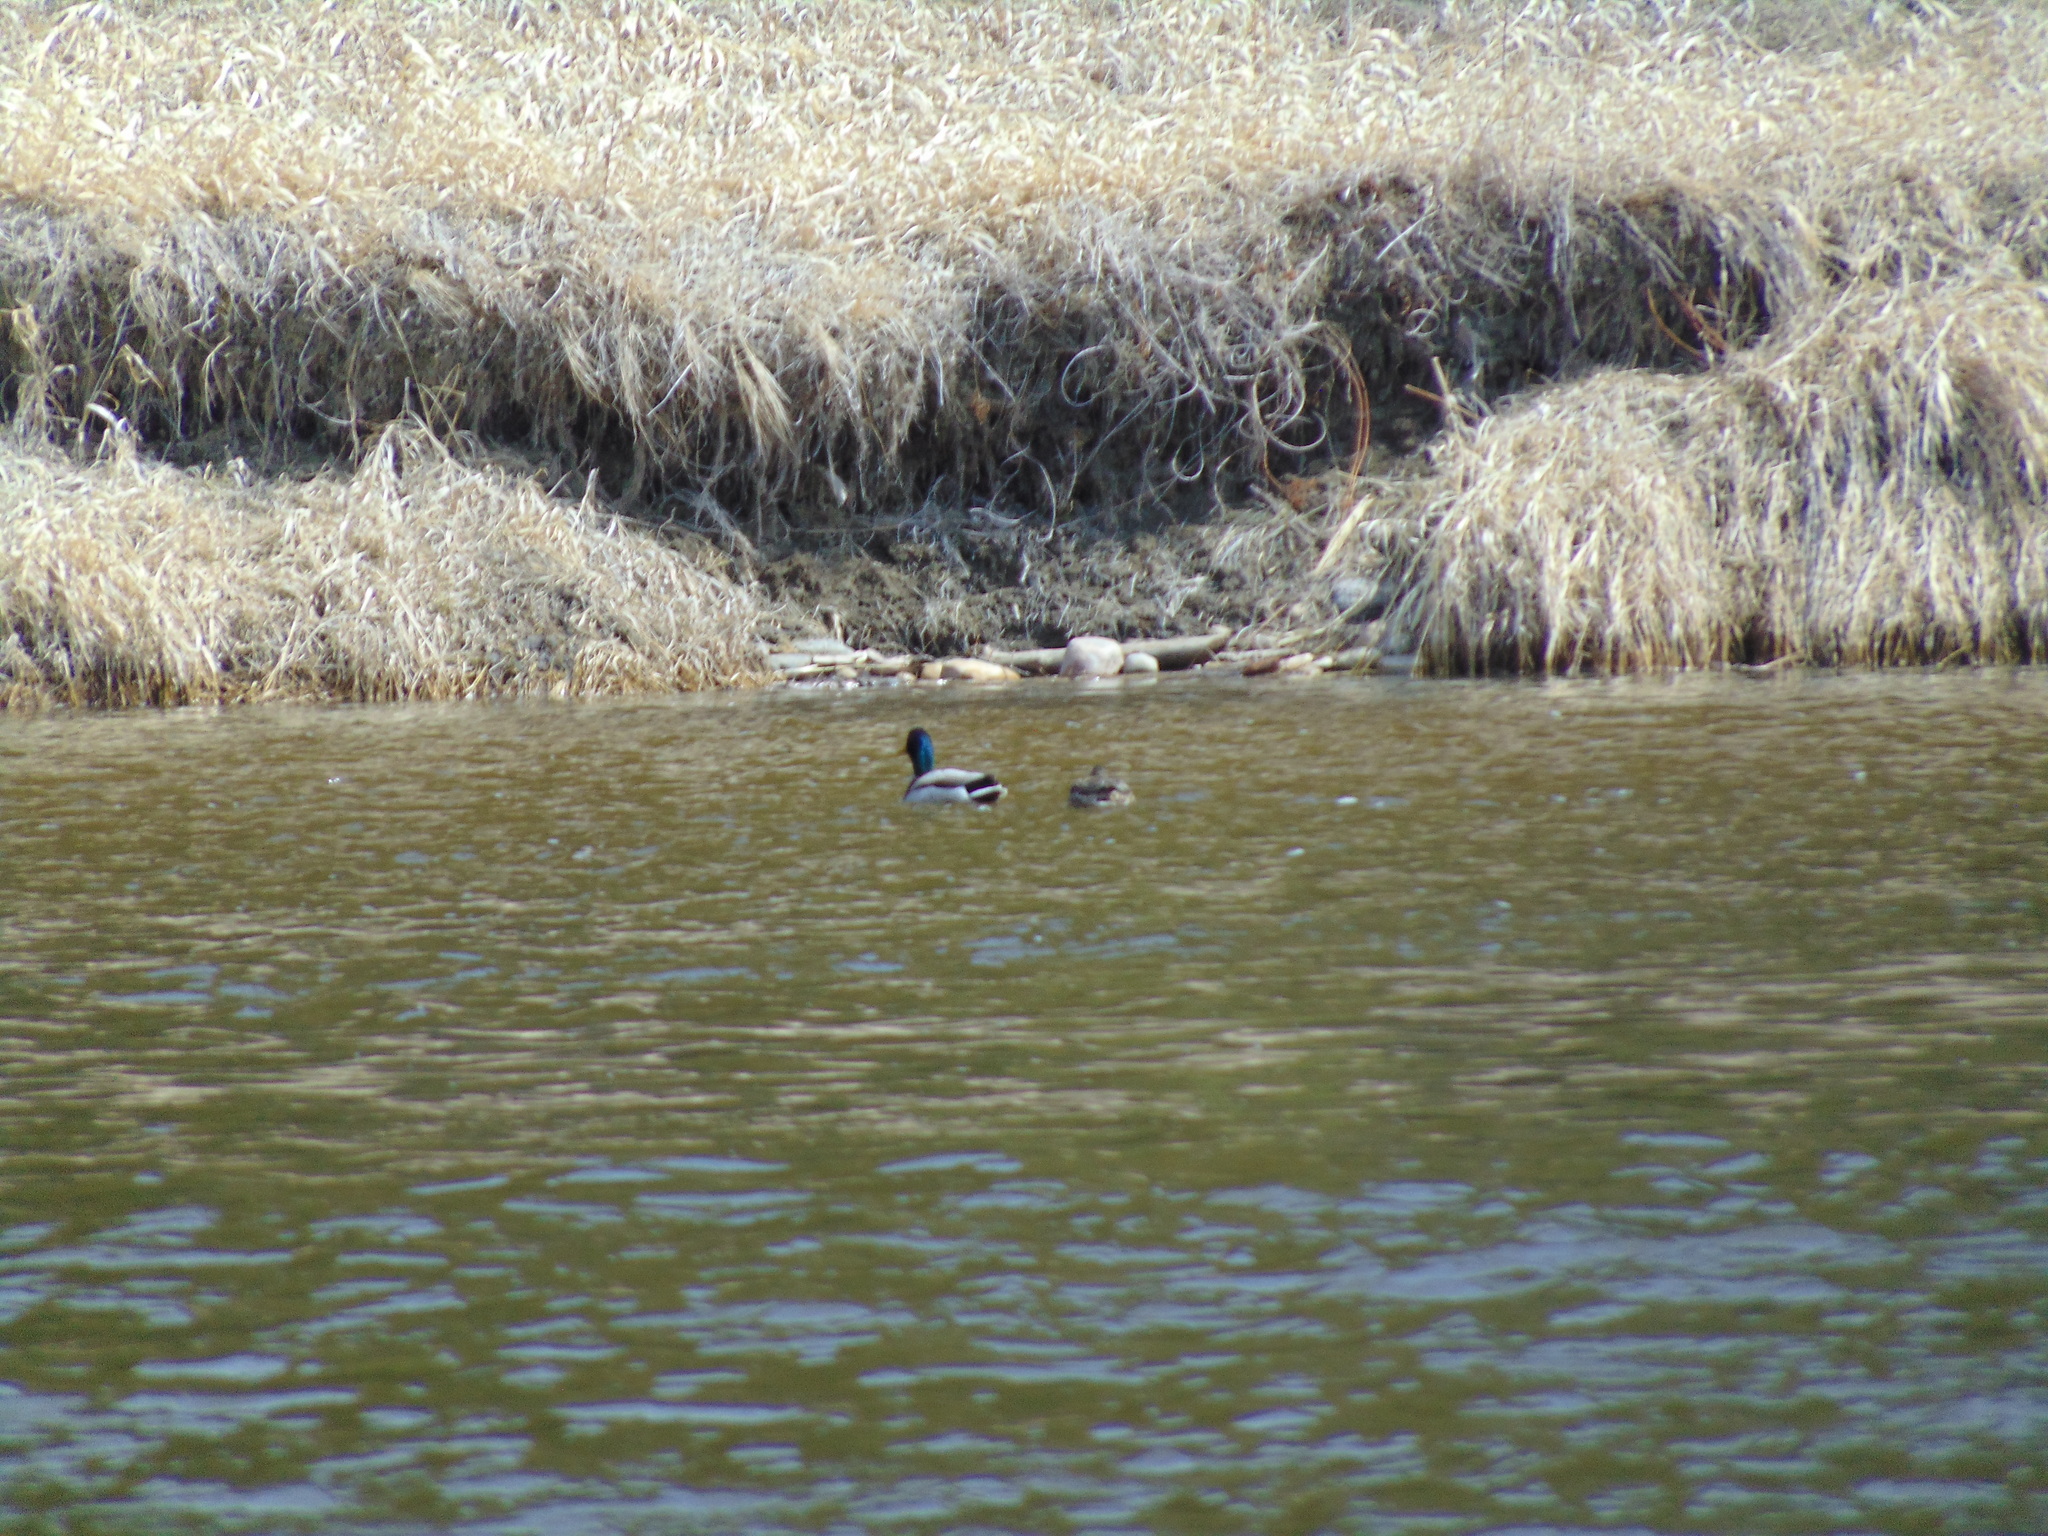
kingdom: Animalia
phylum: Chordata
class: Aves
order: Anseriformes
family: Anatidae
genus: Anas
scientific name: Anas platyrhynchos
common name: Mallard
